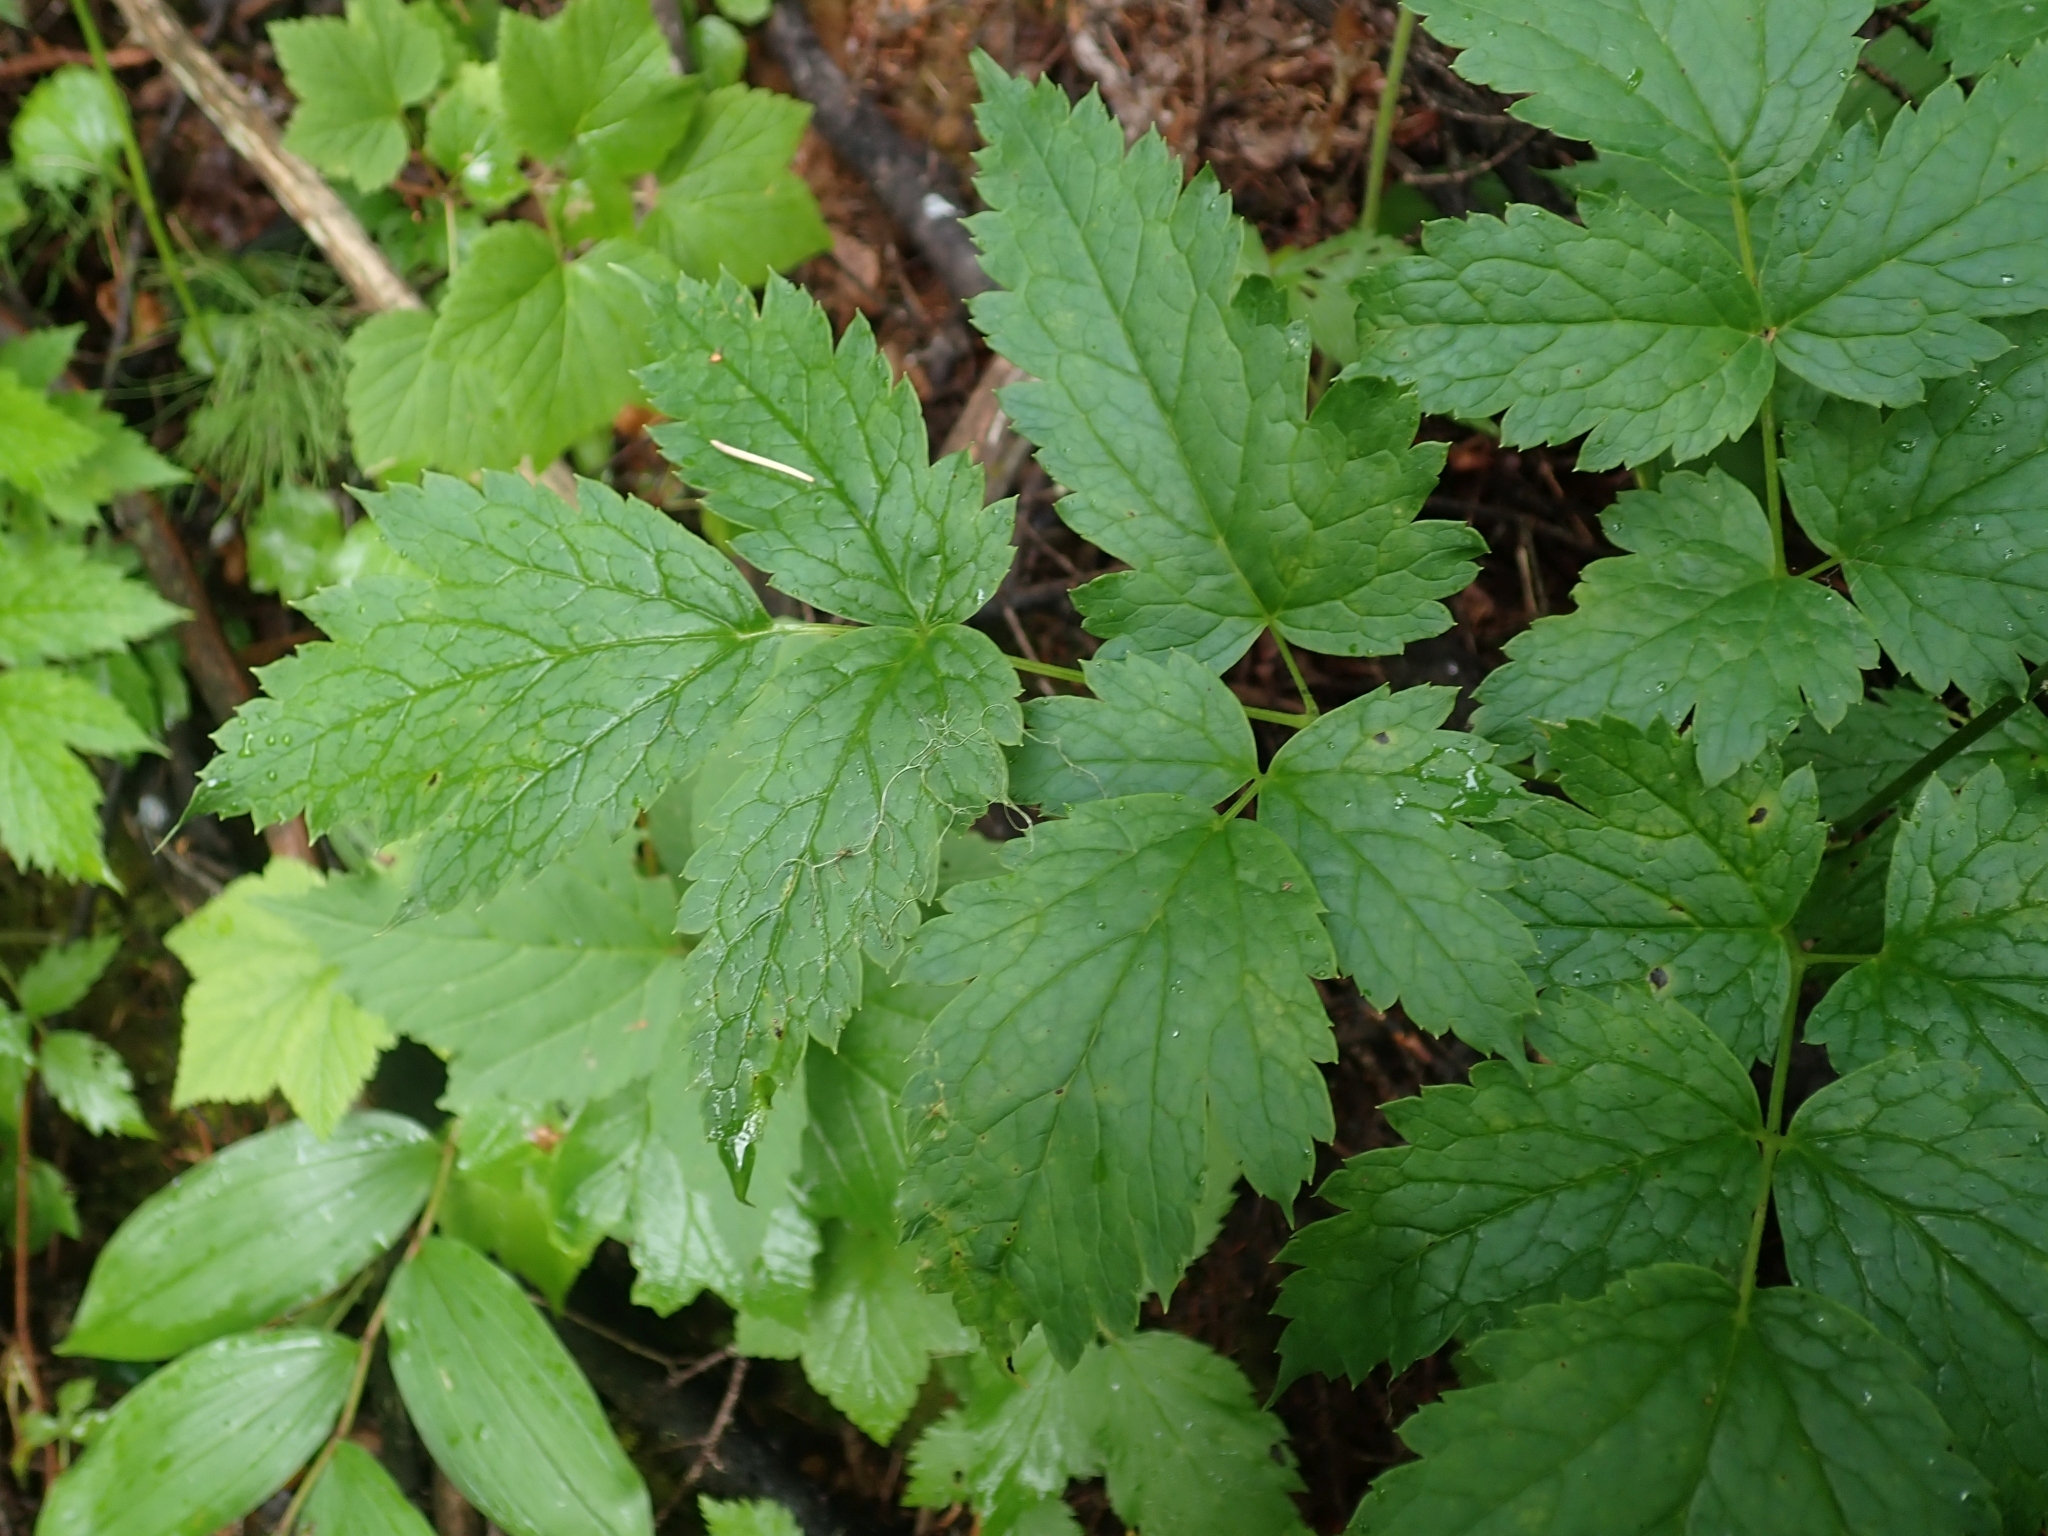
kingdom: Plantae
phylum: Tracheophyta
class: Magnoliopsida
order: Ranunculales
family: Ranunculaceae
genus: Actaea
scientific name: Actaea rubra
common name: Red baneberry
